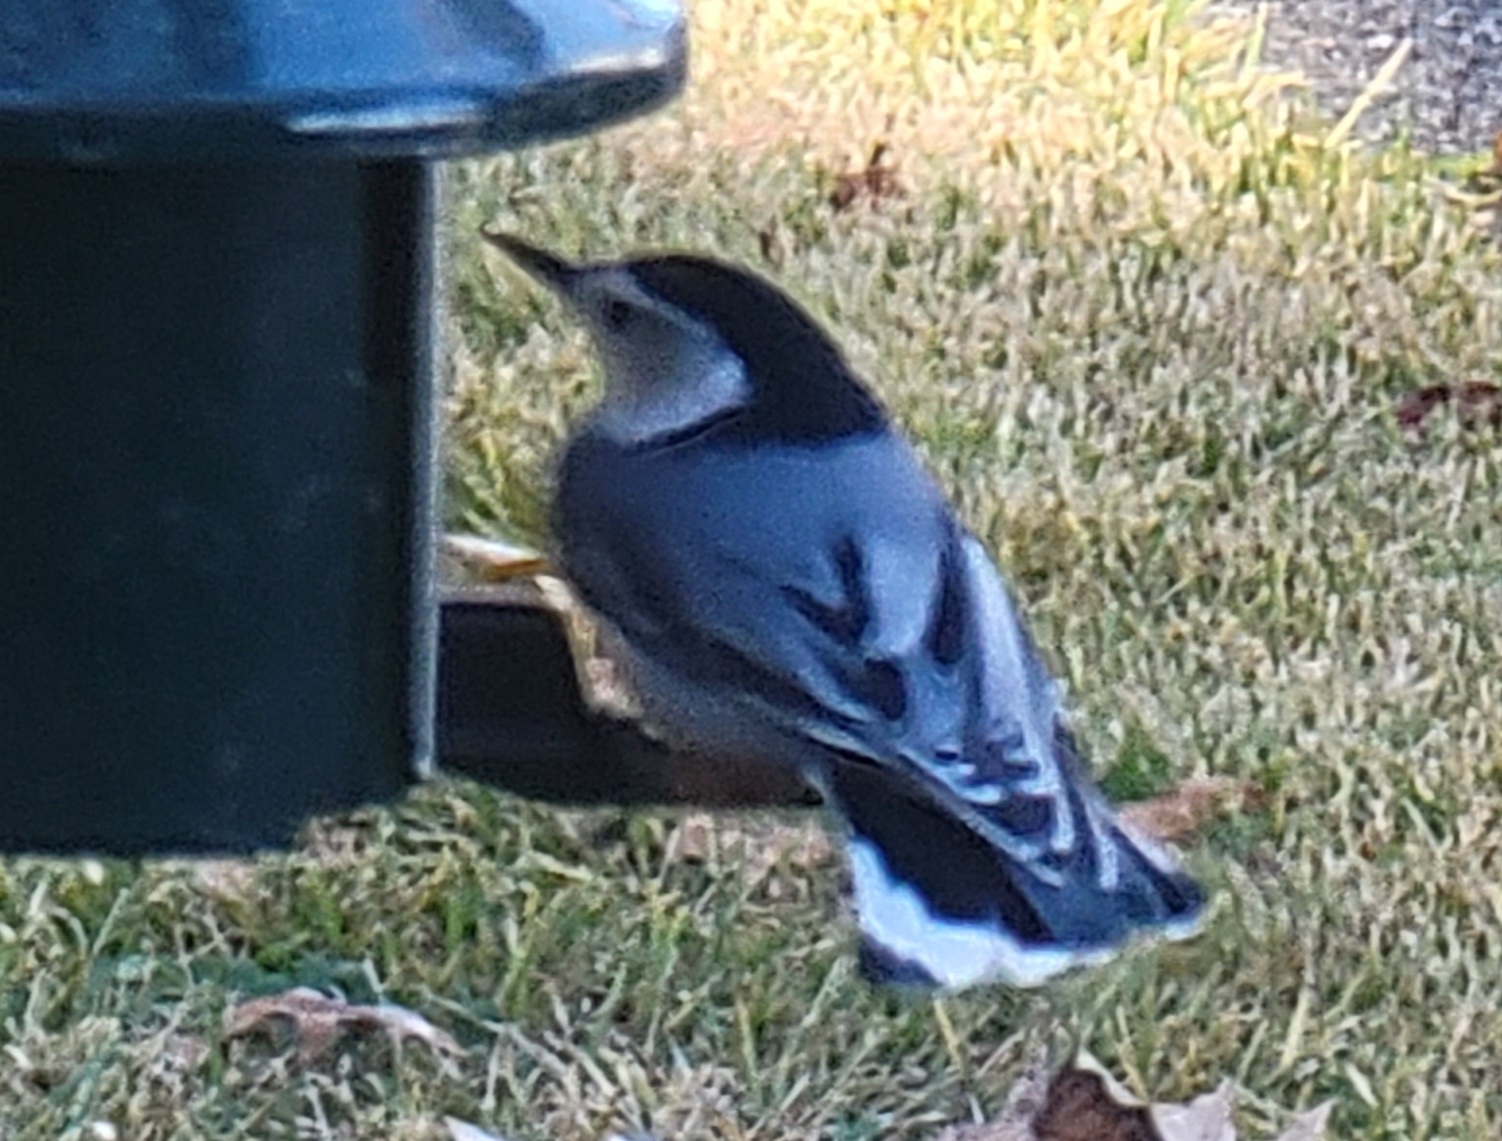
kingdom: Animalia
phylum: Chordata
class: Aves
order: Passeriformes
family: Sittidae
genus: Sitta
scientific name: Sitta carolinensis
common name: White-breasted nuthatch
